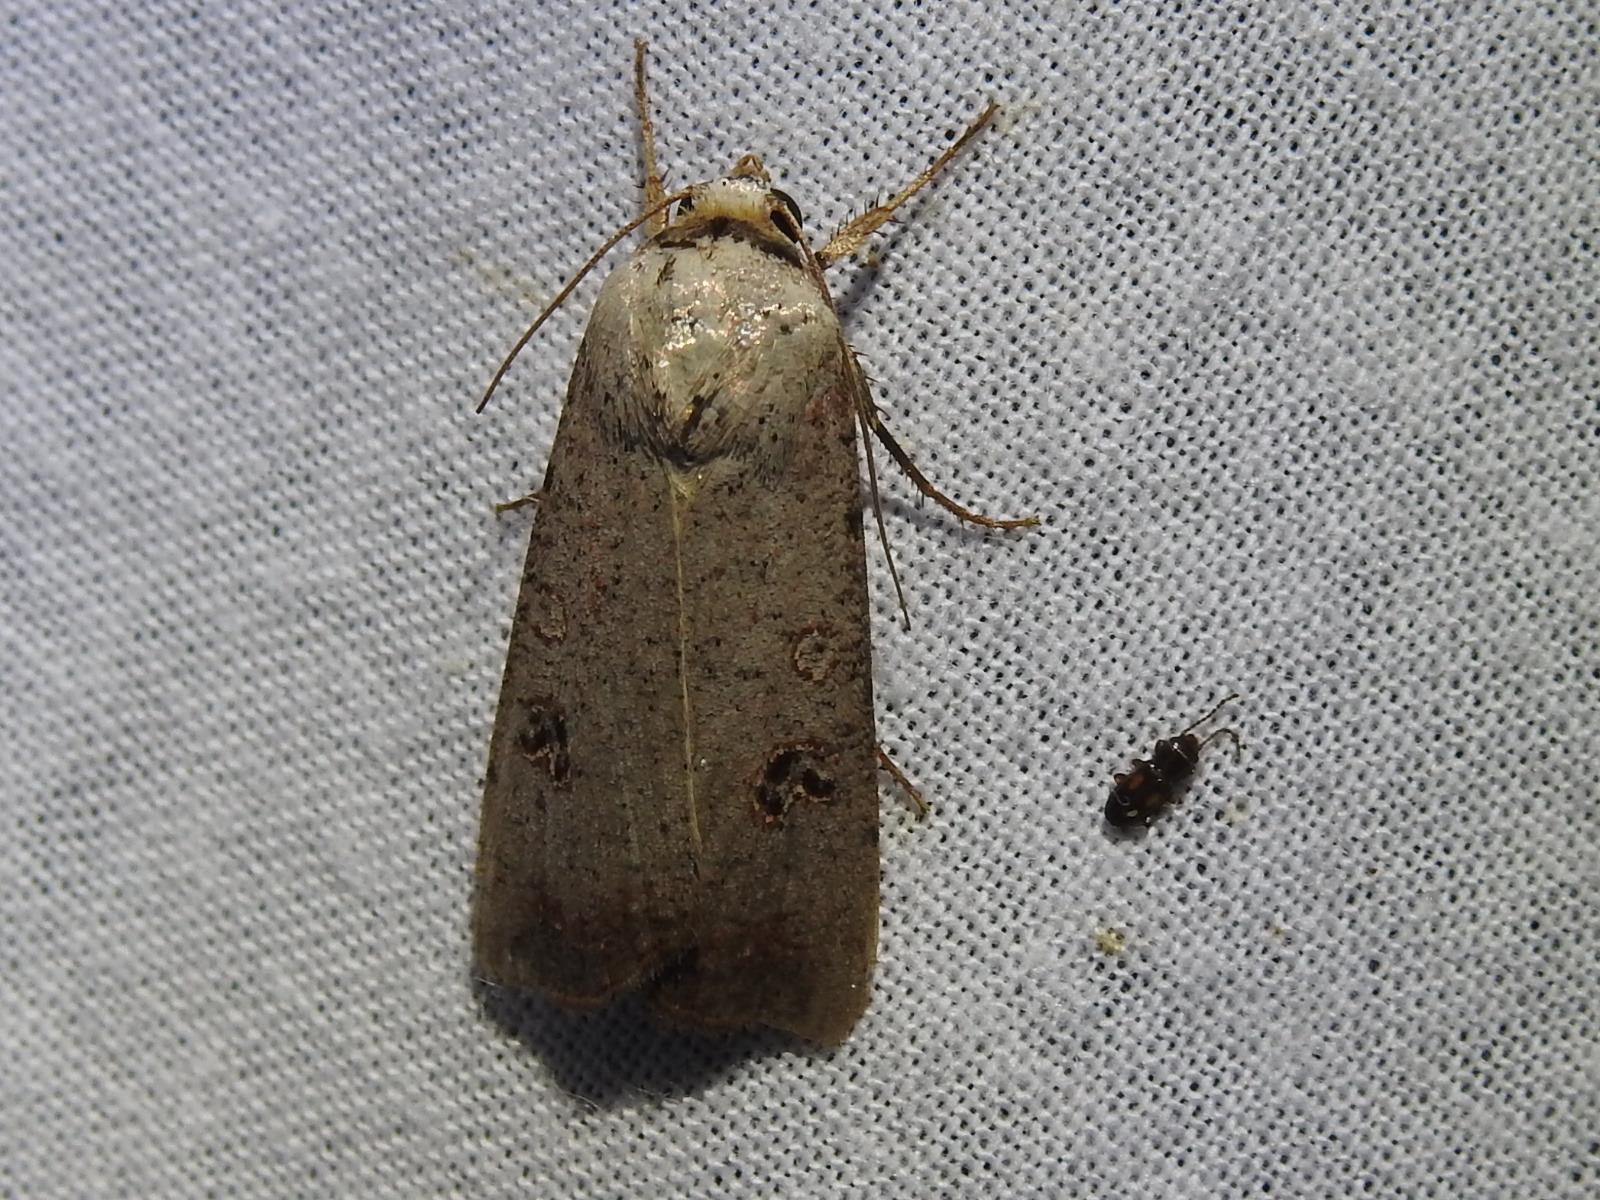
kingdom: Animalia
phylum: Arthropoda
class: Insecta
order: Lepidoptera
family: Noctuidae
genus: Anicla
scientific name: Anicla infecta
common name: Green cutworm
